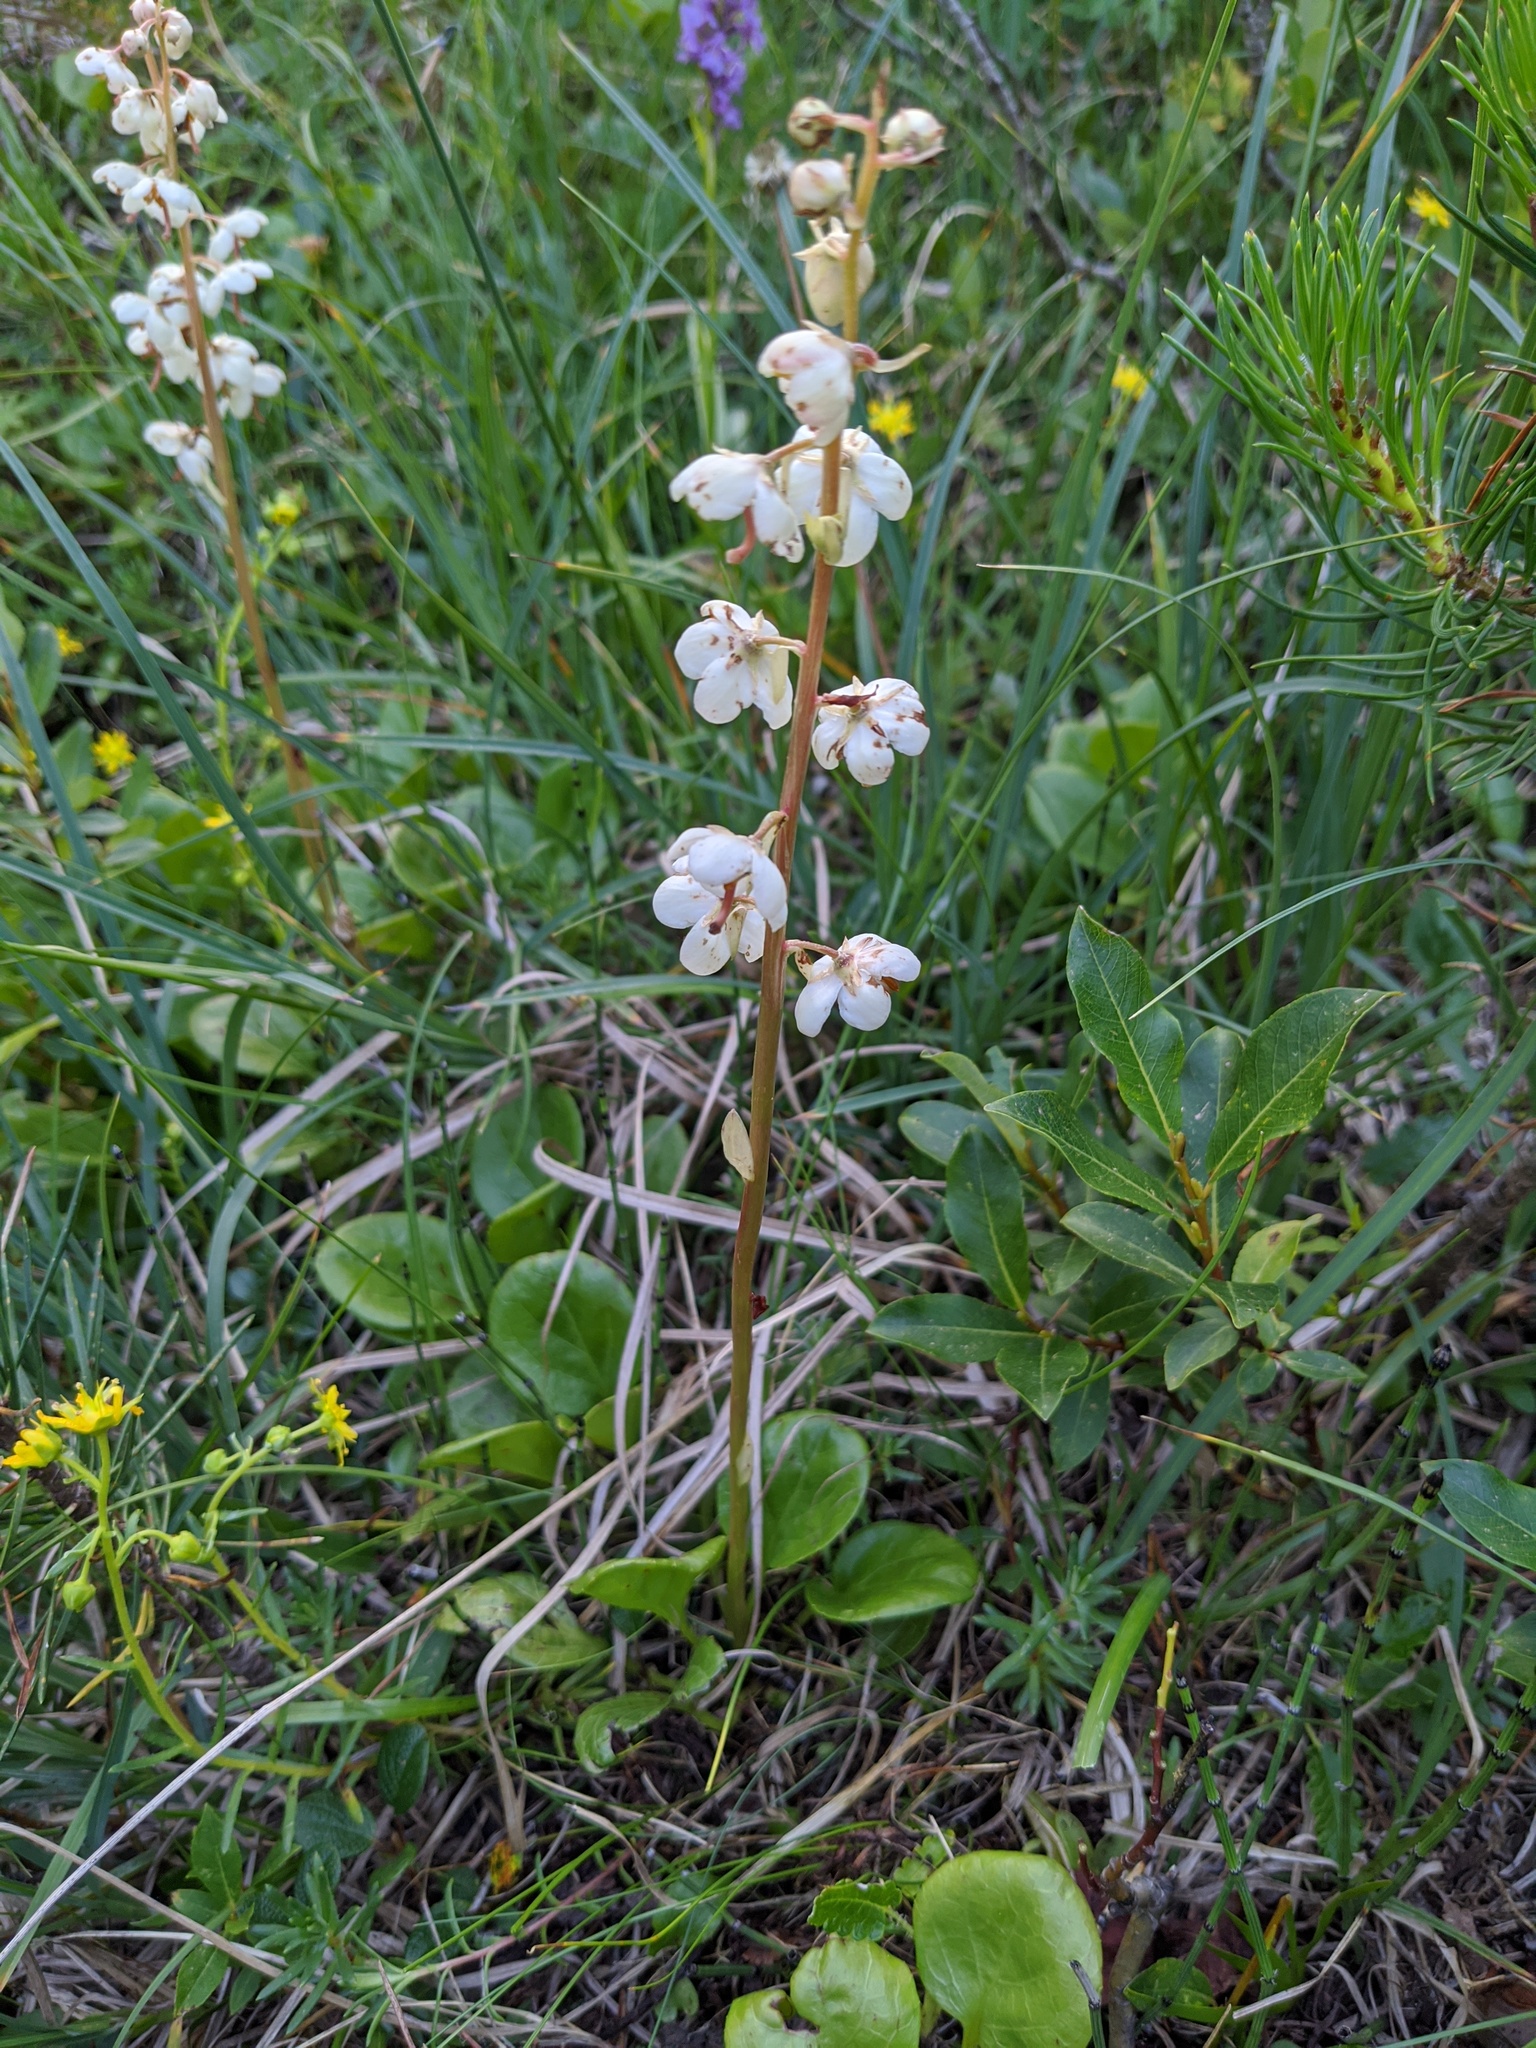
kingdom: Plantae
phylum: Tracheophyta
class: Magnoliopsida
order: Ericales
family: Ericaceae
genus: Pyrola
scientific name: Pyrola rotundifolia
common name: Round-leaved wintergreen
